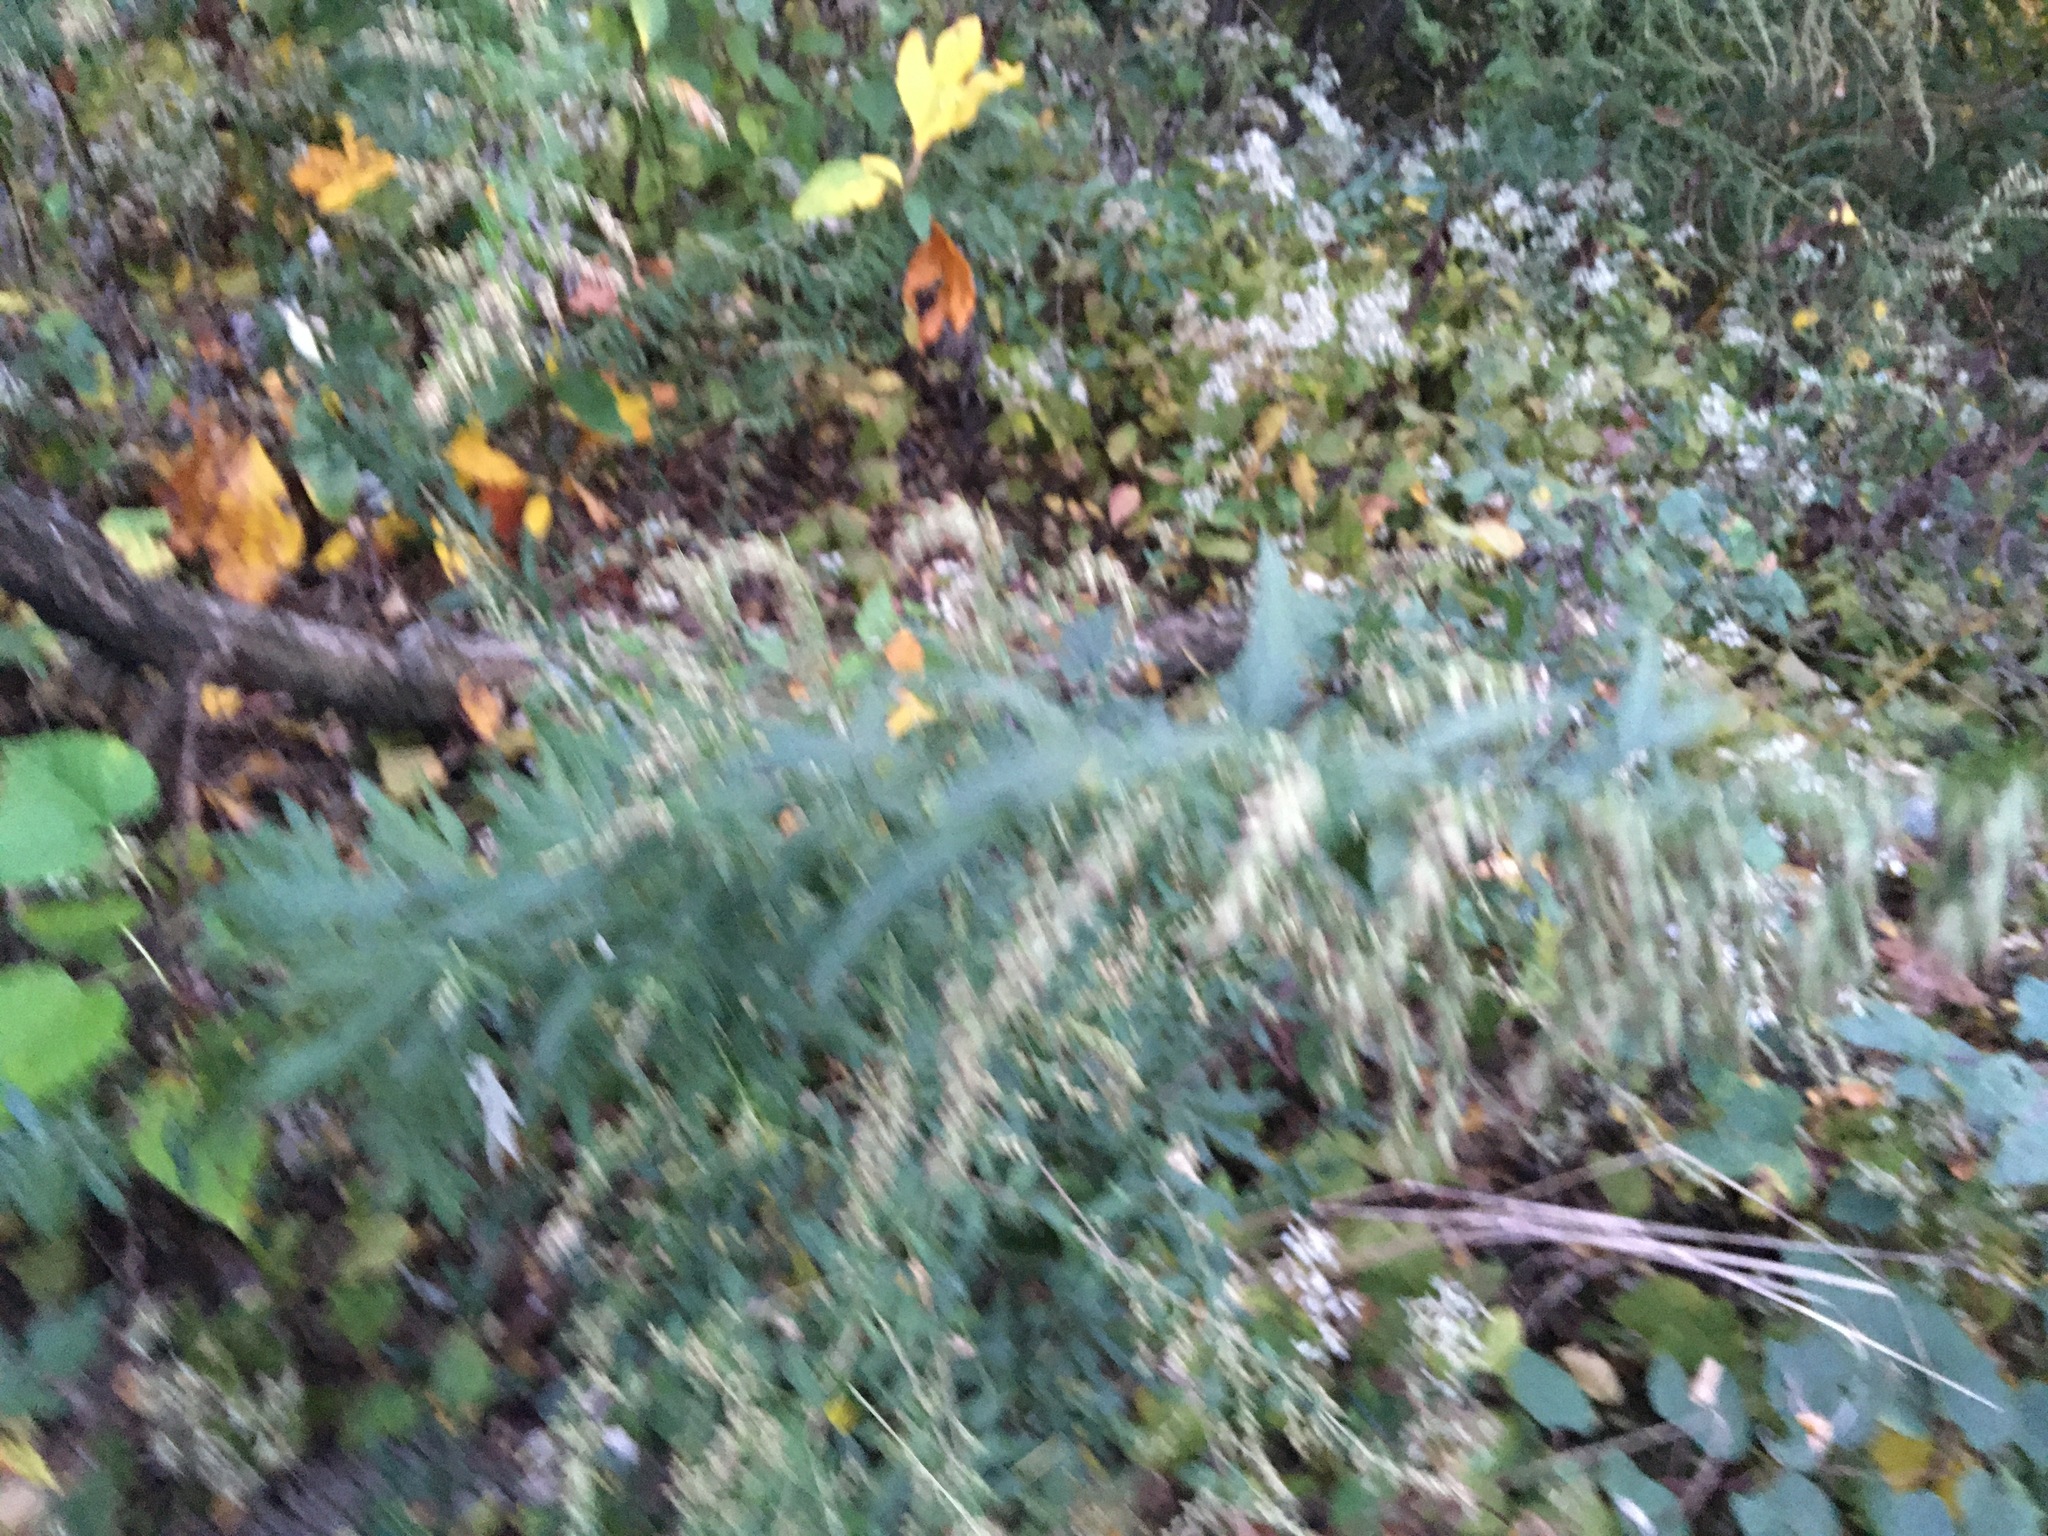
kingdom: Plantae
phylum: Tracheophyta
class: Magnoliopsida
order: Asterales
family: Asteraceae
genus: Artemisia
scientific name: Artemisia vulgaris
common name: Mugwort
